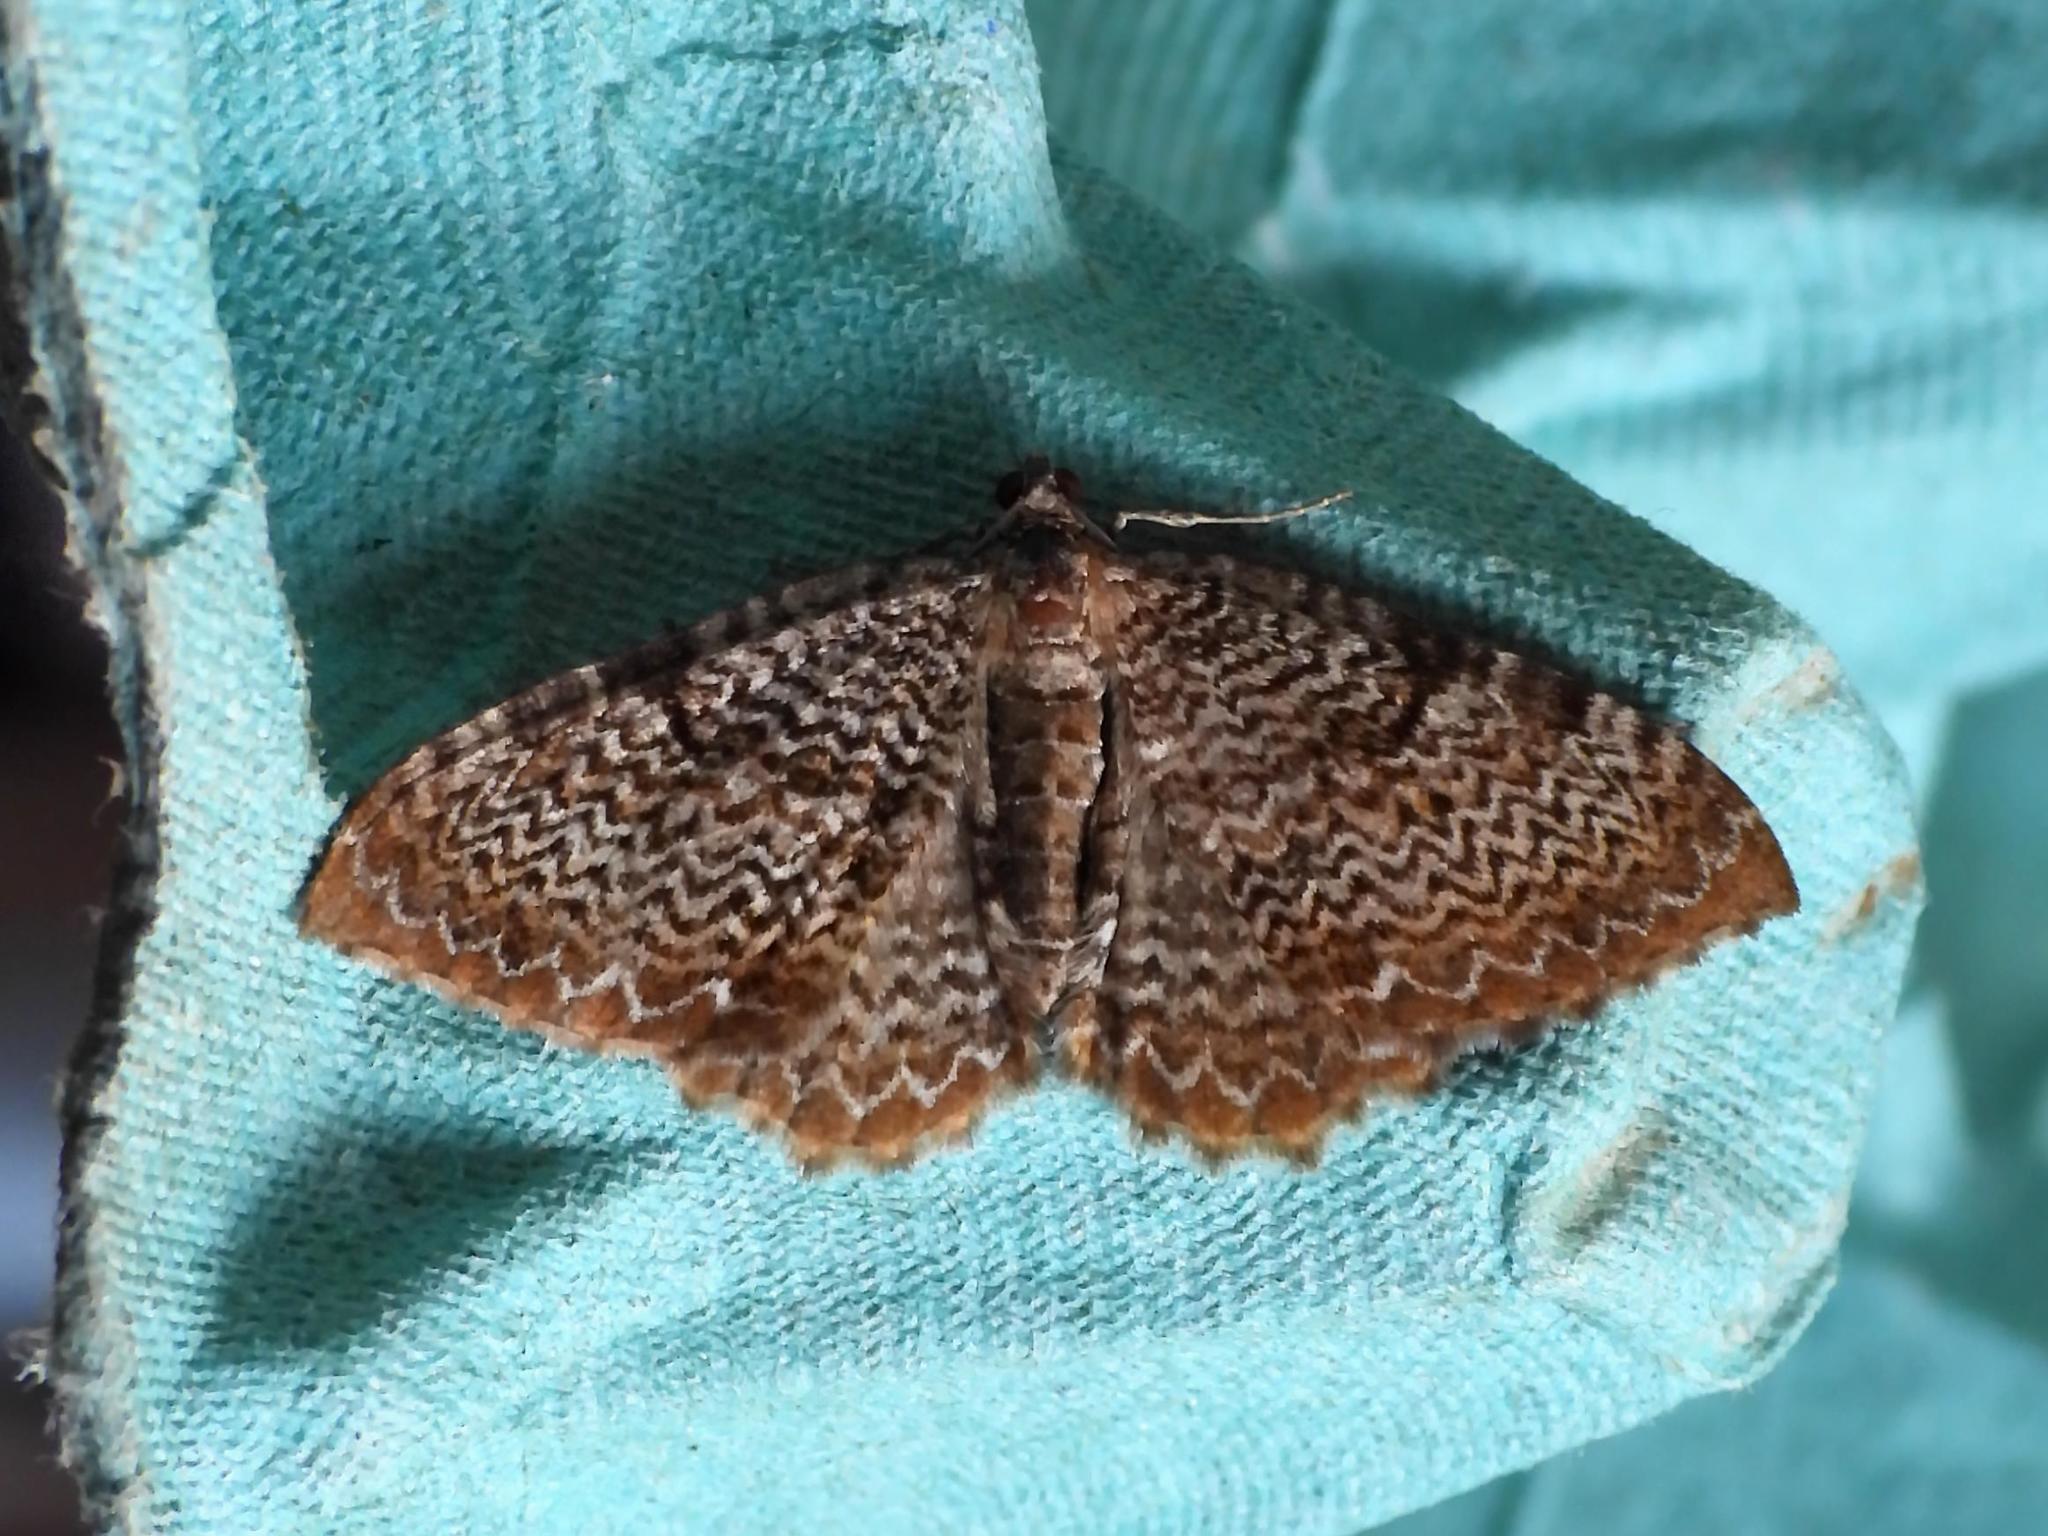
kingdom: Animalia
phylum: Arthropoda
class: Insecta
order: Lepidoptera
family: Geometridae
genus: Rheumaptera
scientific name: Rheumaptera undulata
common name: Scallop shell
